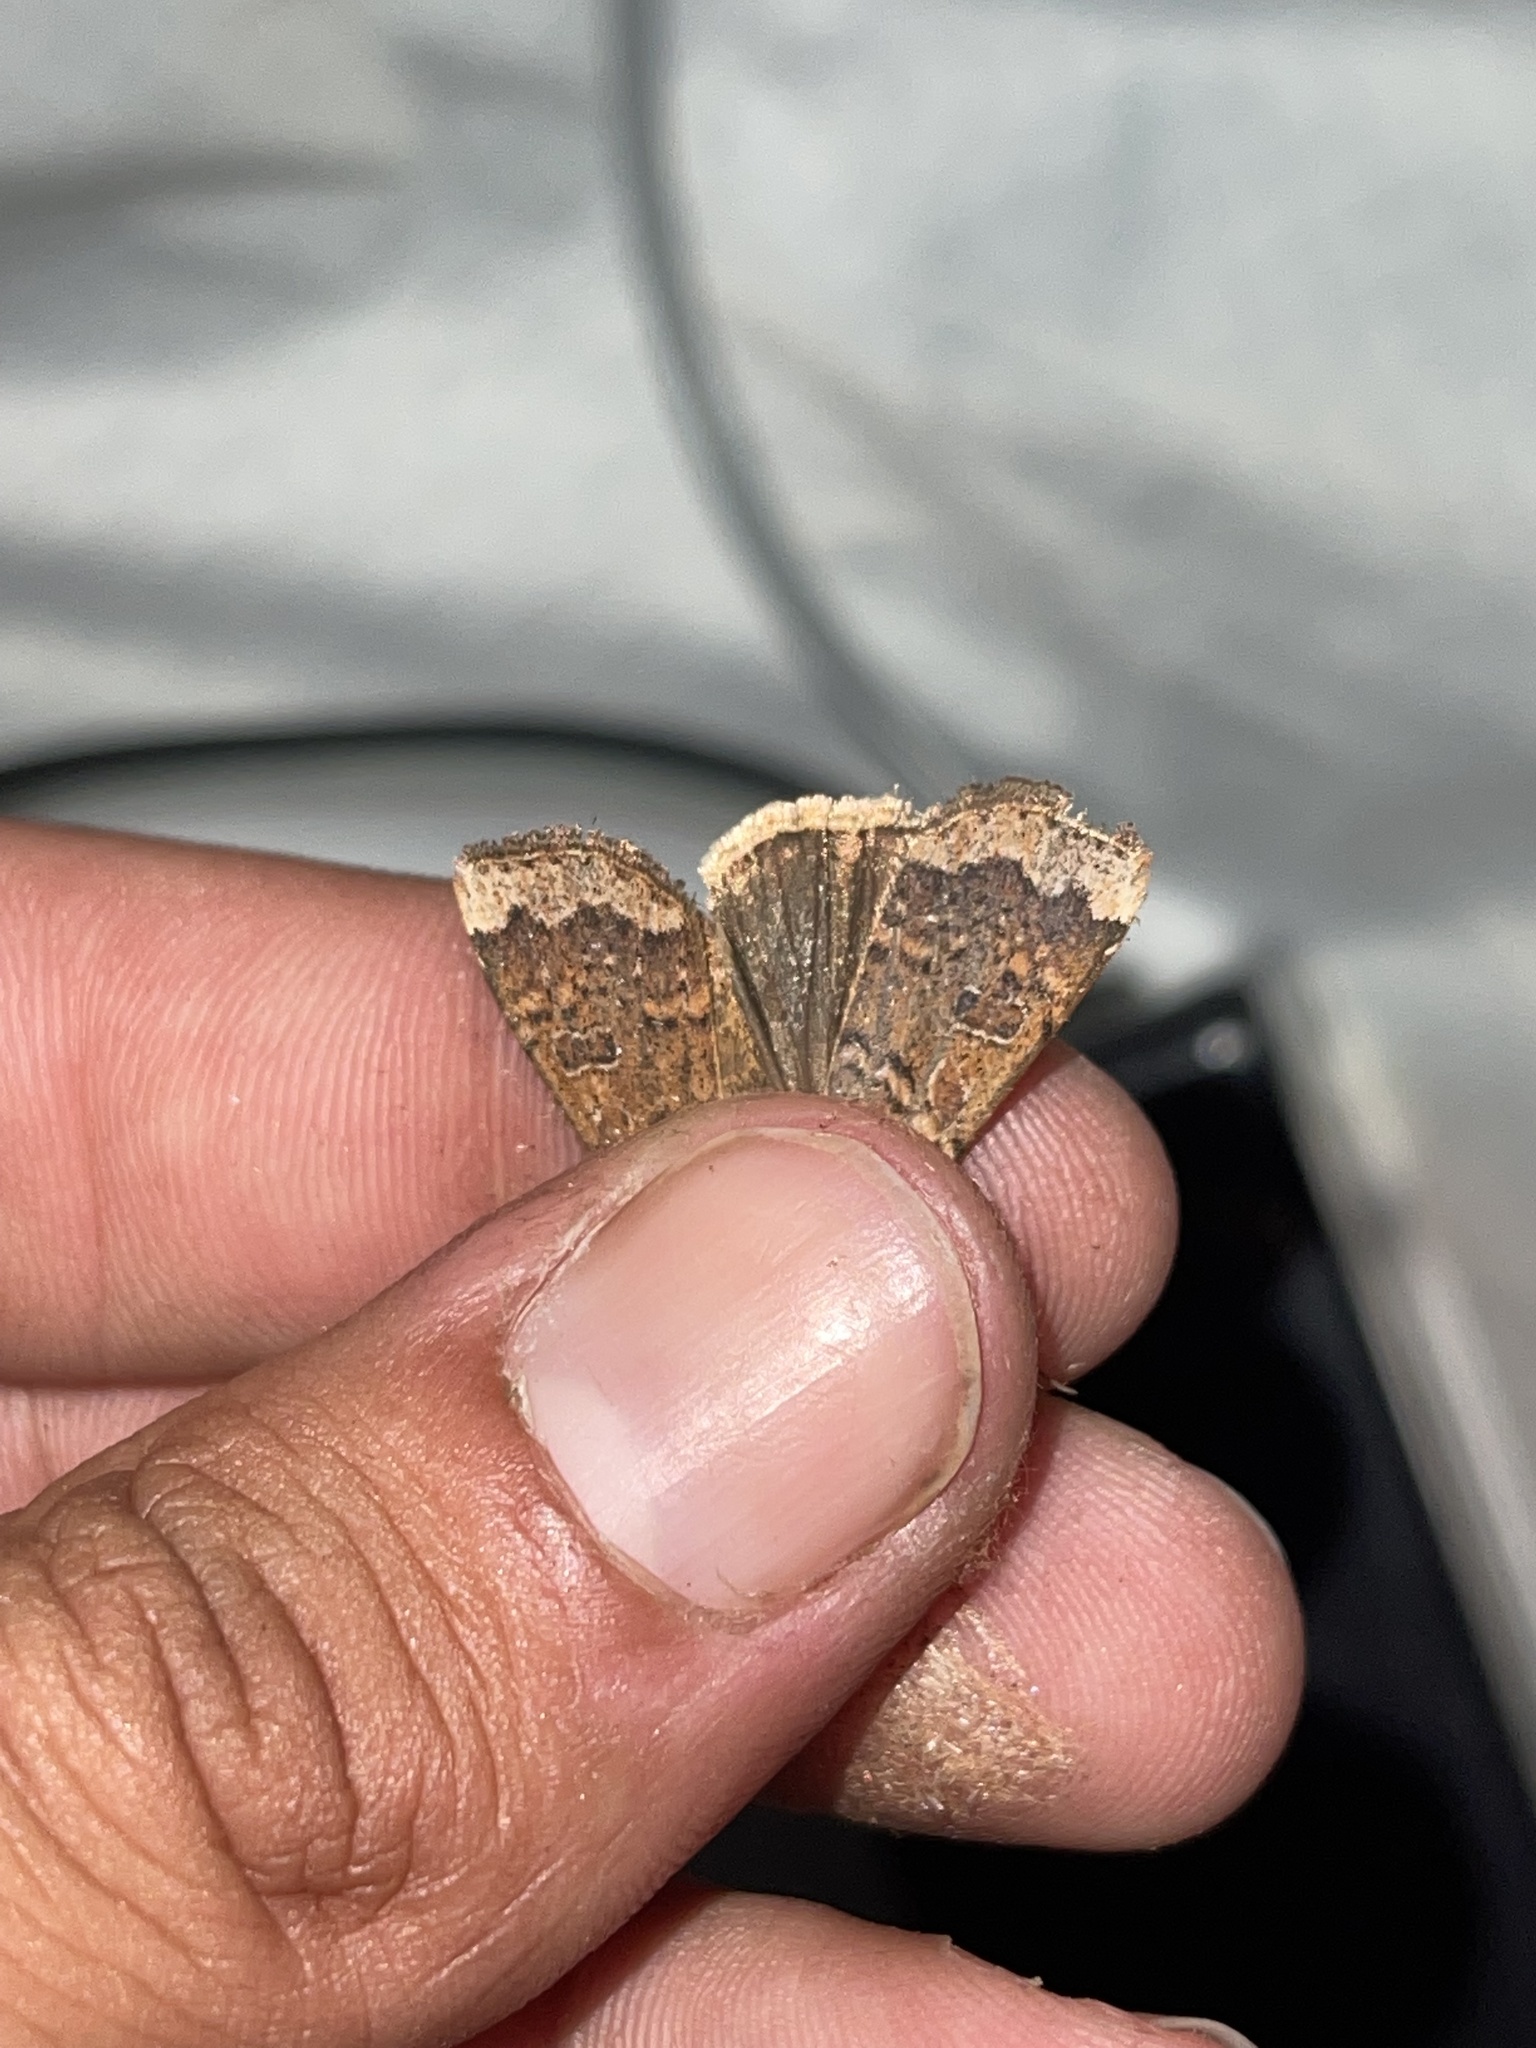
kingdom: Animalia
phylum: Arthropoda
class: Insecta
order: Lepidoptera
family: Noctuidae
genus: Abagrotis
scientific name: Abagrotis alternata
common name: Greater red dart
